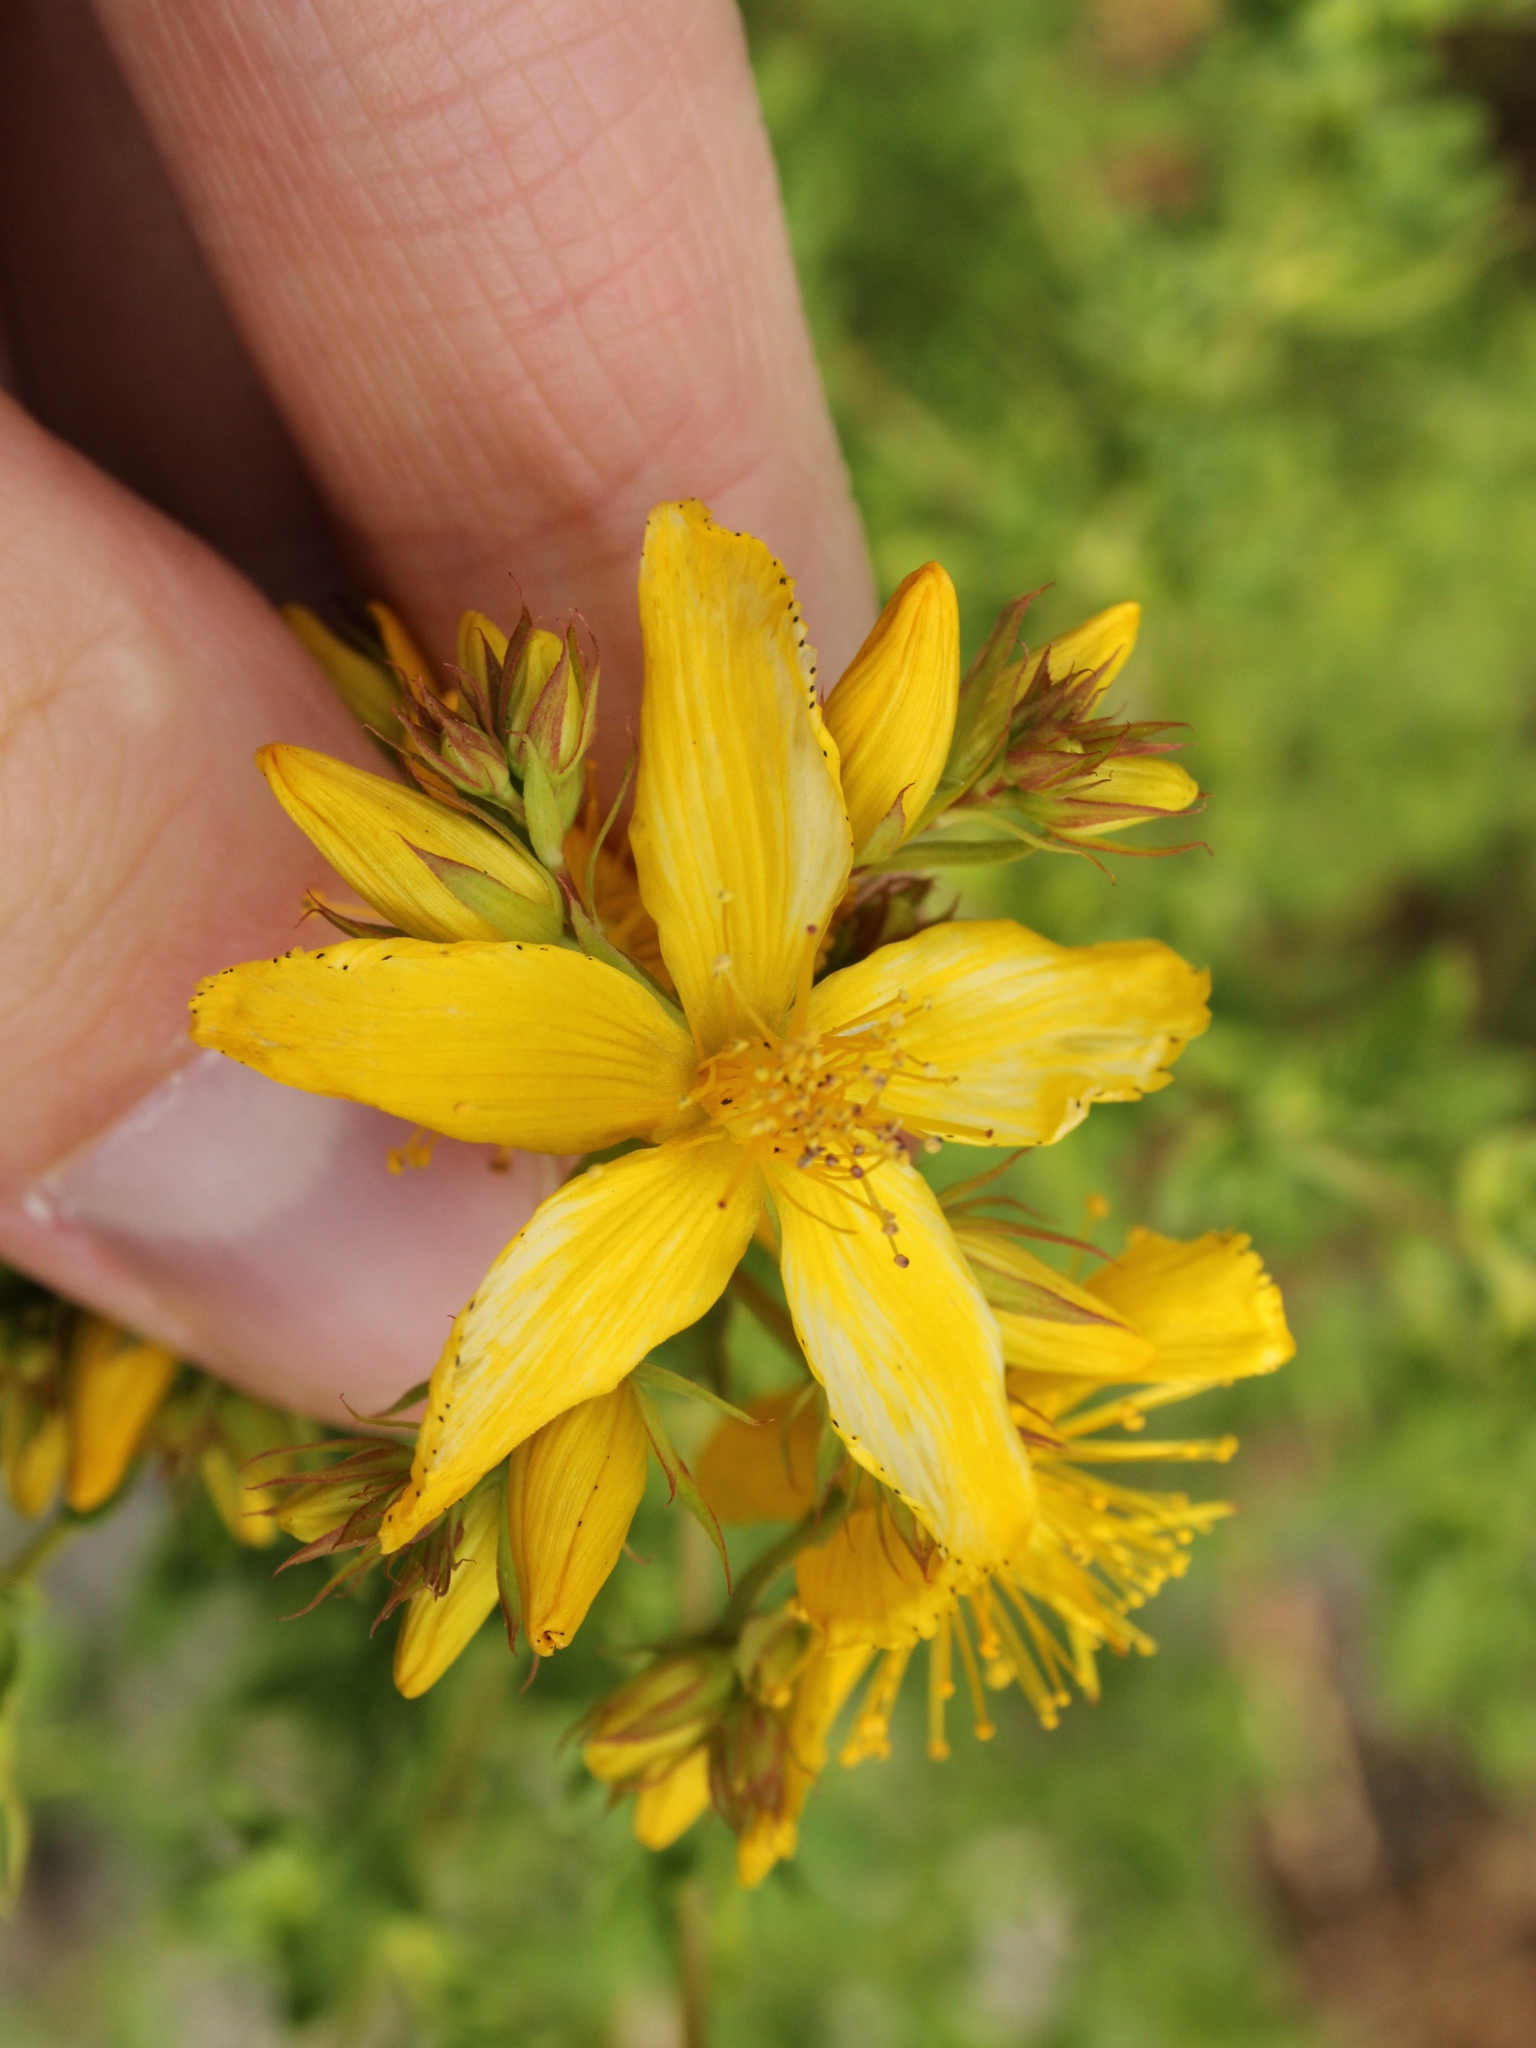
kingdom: Plantae
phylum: Tracheophyta
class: Magnoliopsida
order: Malpighiales
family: Hypericaceae
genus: Hypericum
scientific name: Hypericum perforatum
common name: Common st. johnswort
